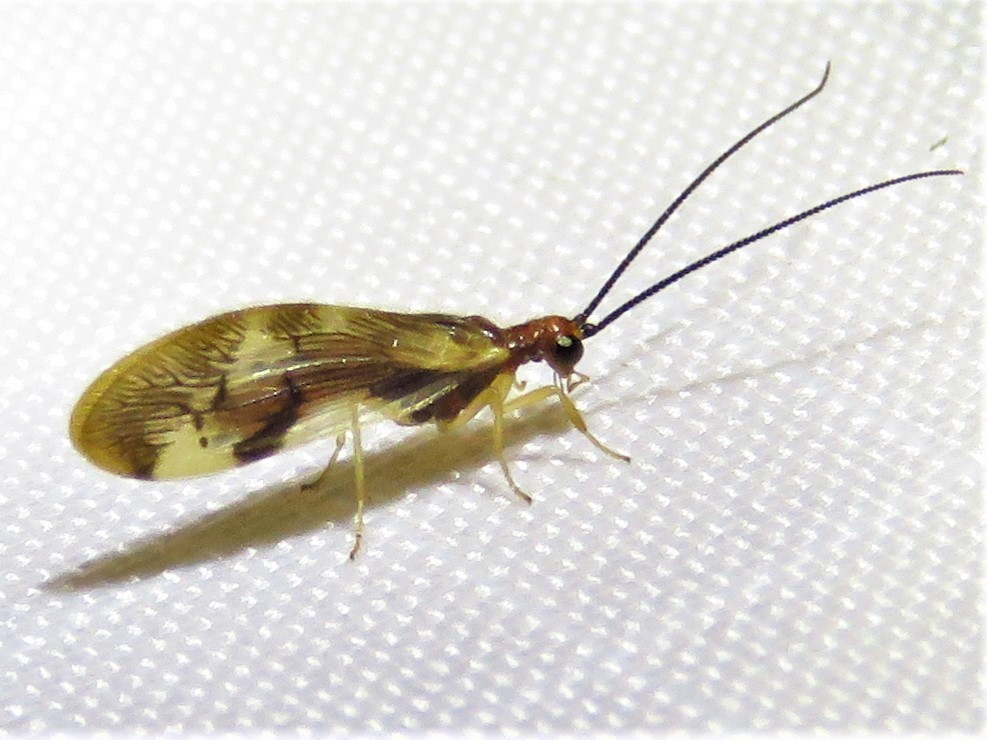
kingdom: Animalia
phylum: Arthropoda
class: Insecta
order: Neuroptera
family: Sisyridae
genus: Climacia
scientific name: Climacia areolaris
